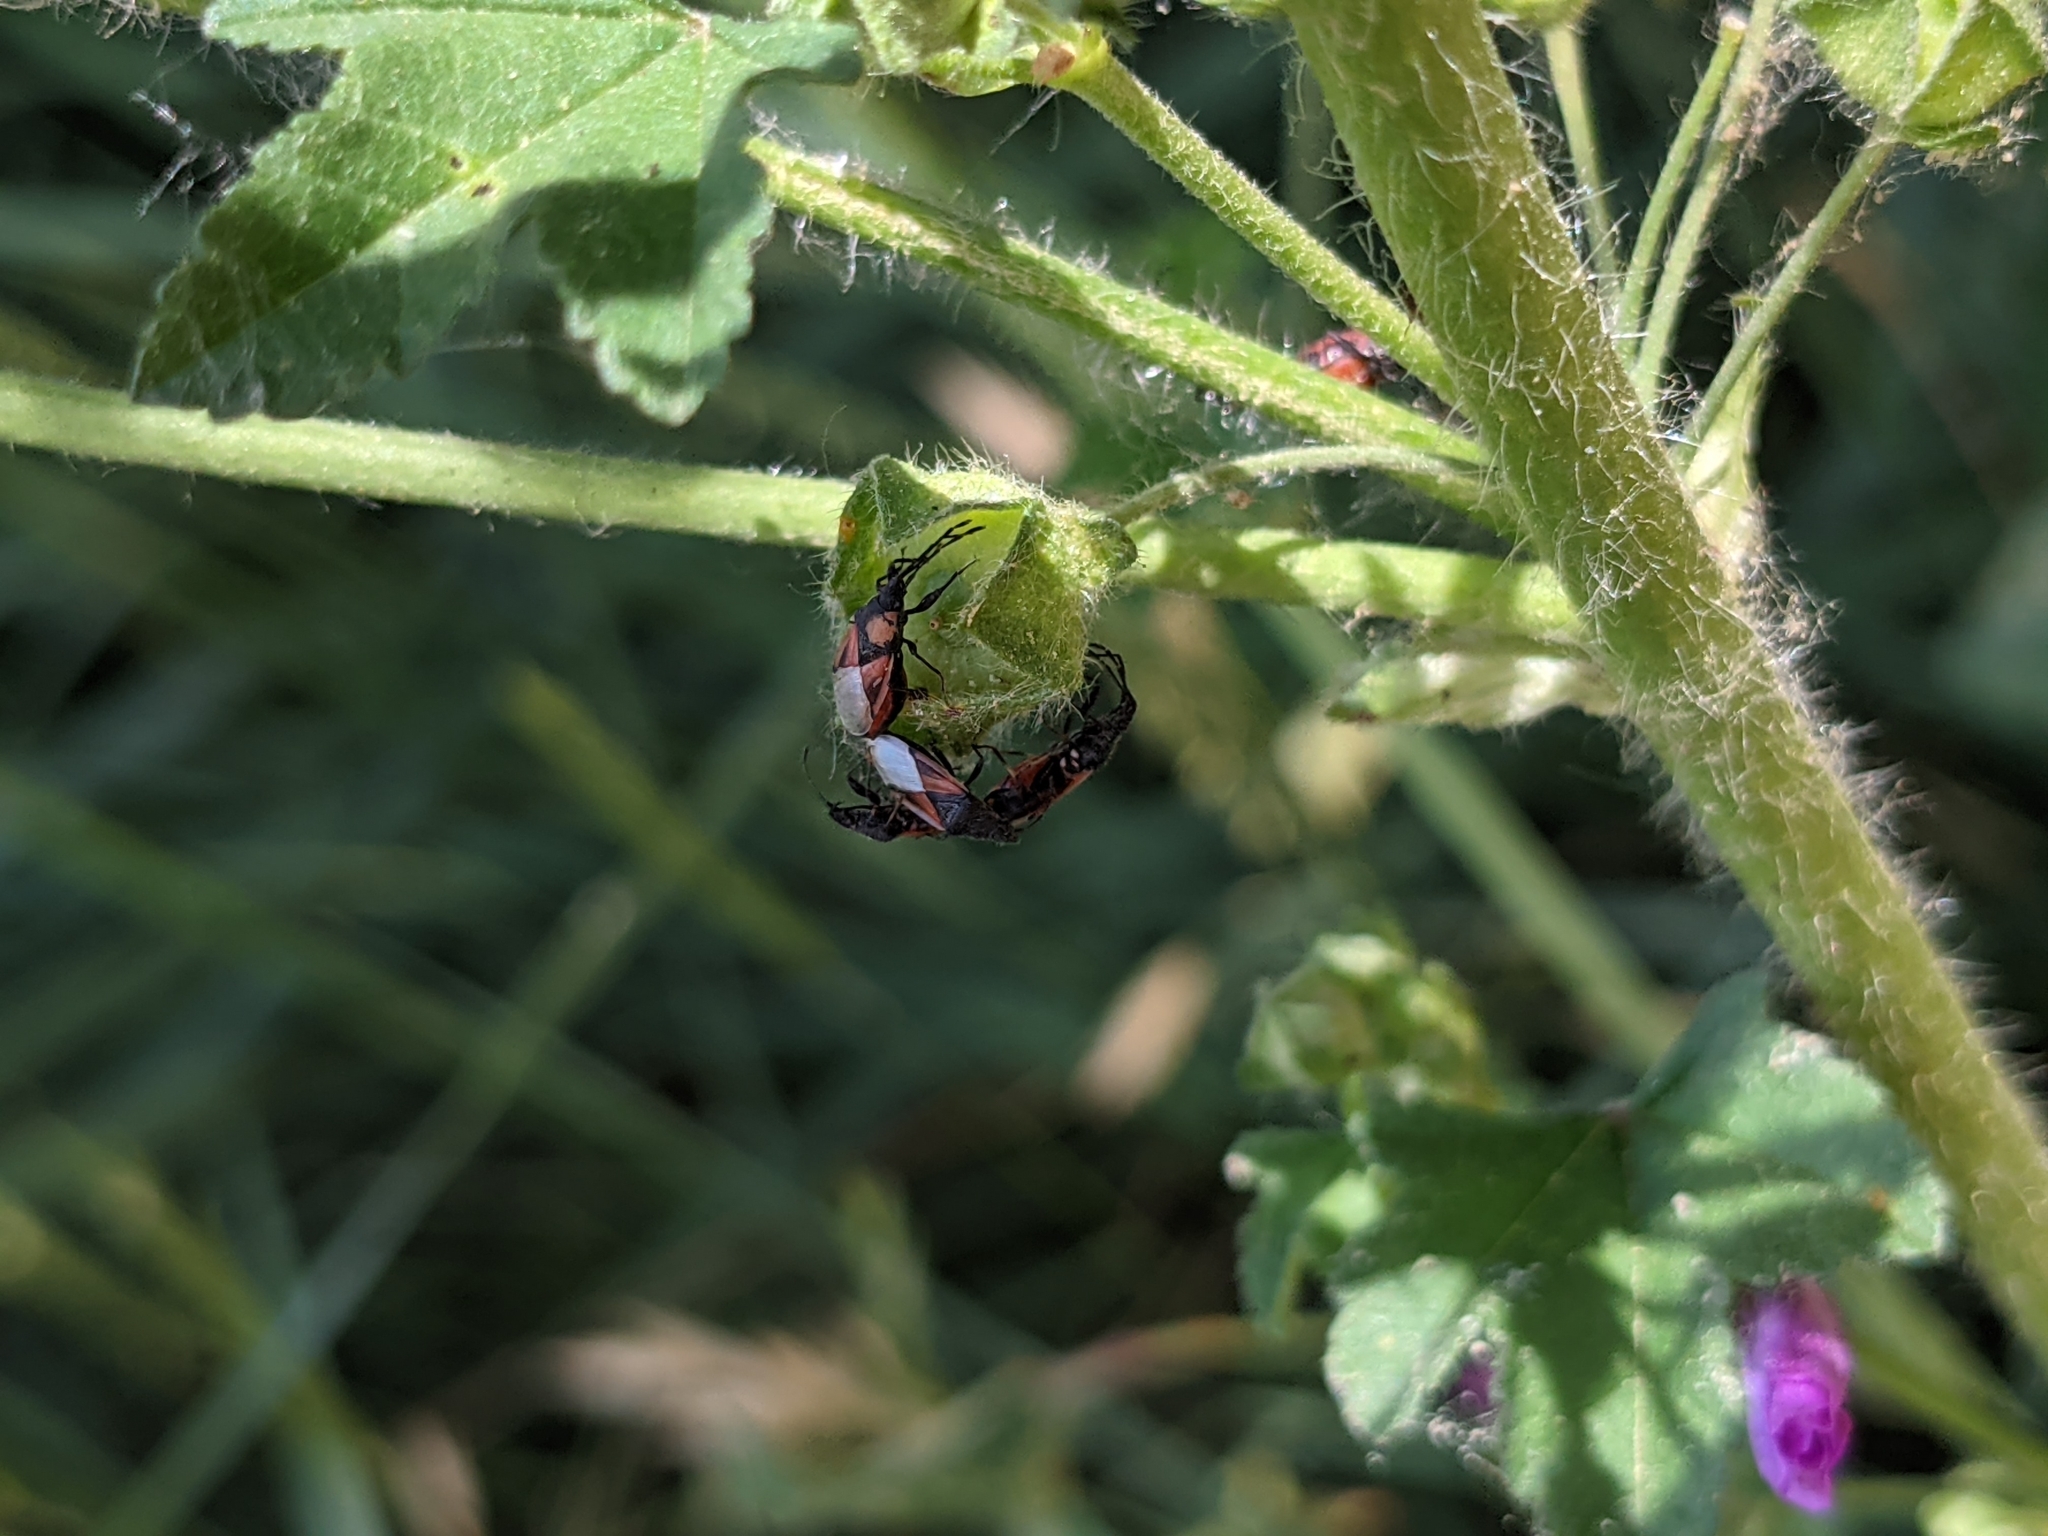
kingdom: Animalia
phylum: Arthropoda
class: Insecta
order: Hemiptera
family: Oxycarenidae
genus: Oxycarenus
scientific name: Oxycarenus lavaterae
